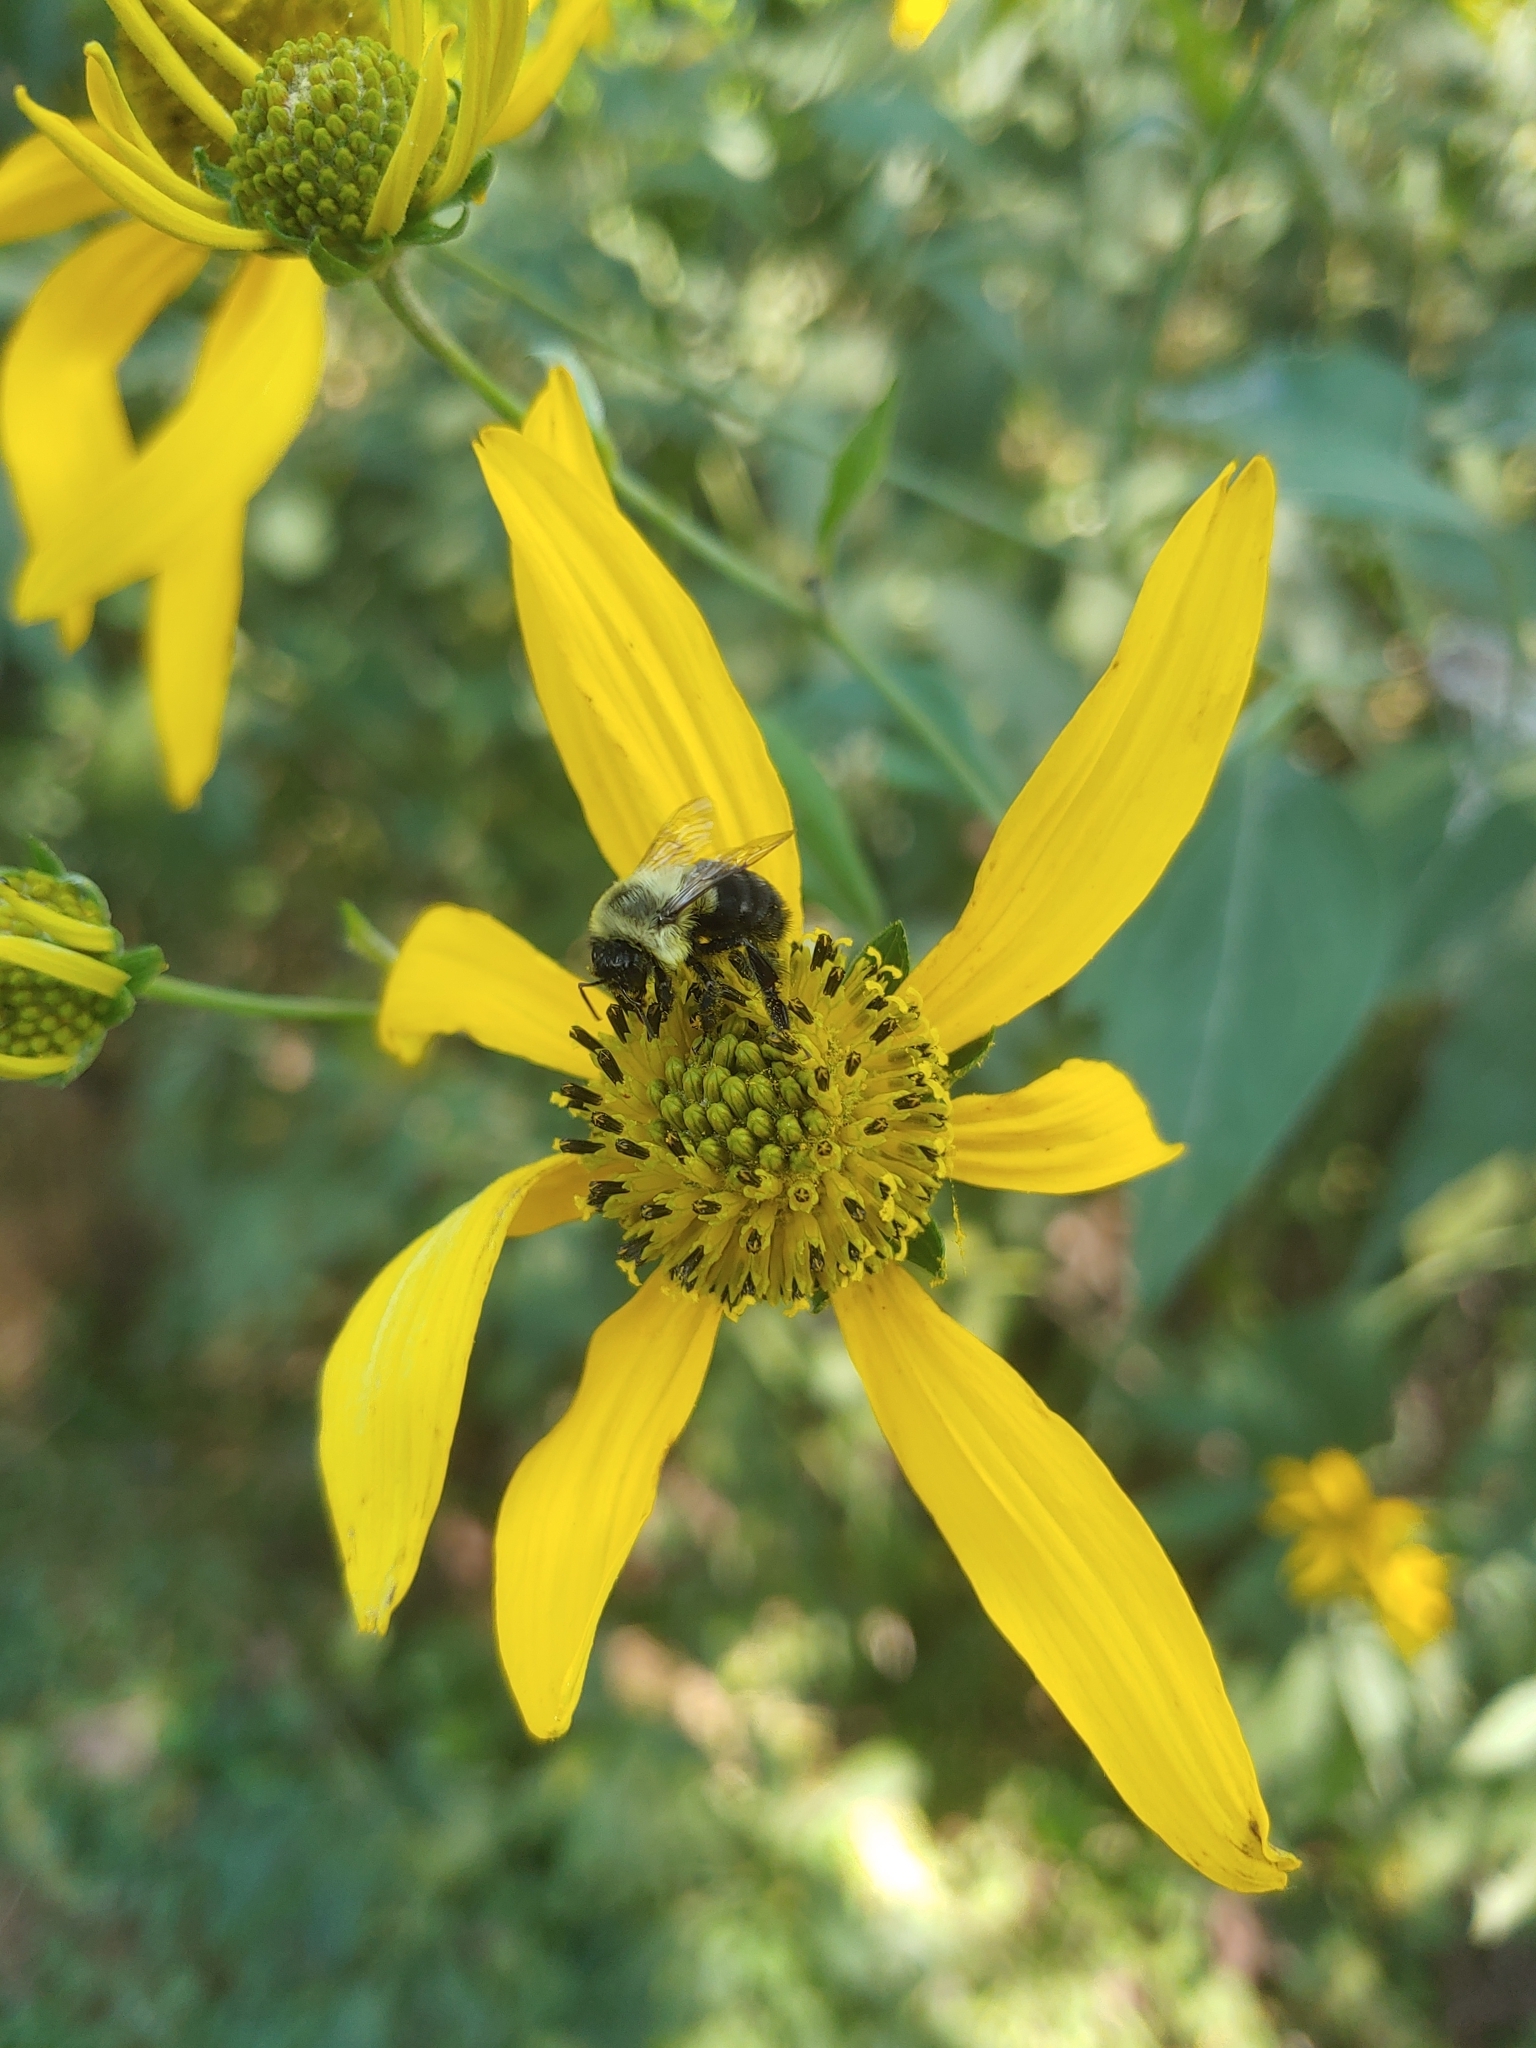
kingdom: Animalia
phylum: Arthropoda
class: Insecta
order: Hymenoptera
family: Apidae
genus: Bombus
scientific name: Bombus impatiens
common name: Common eastern bumble bee
